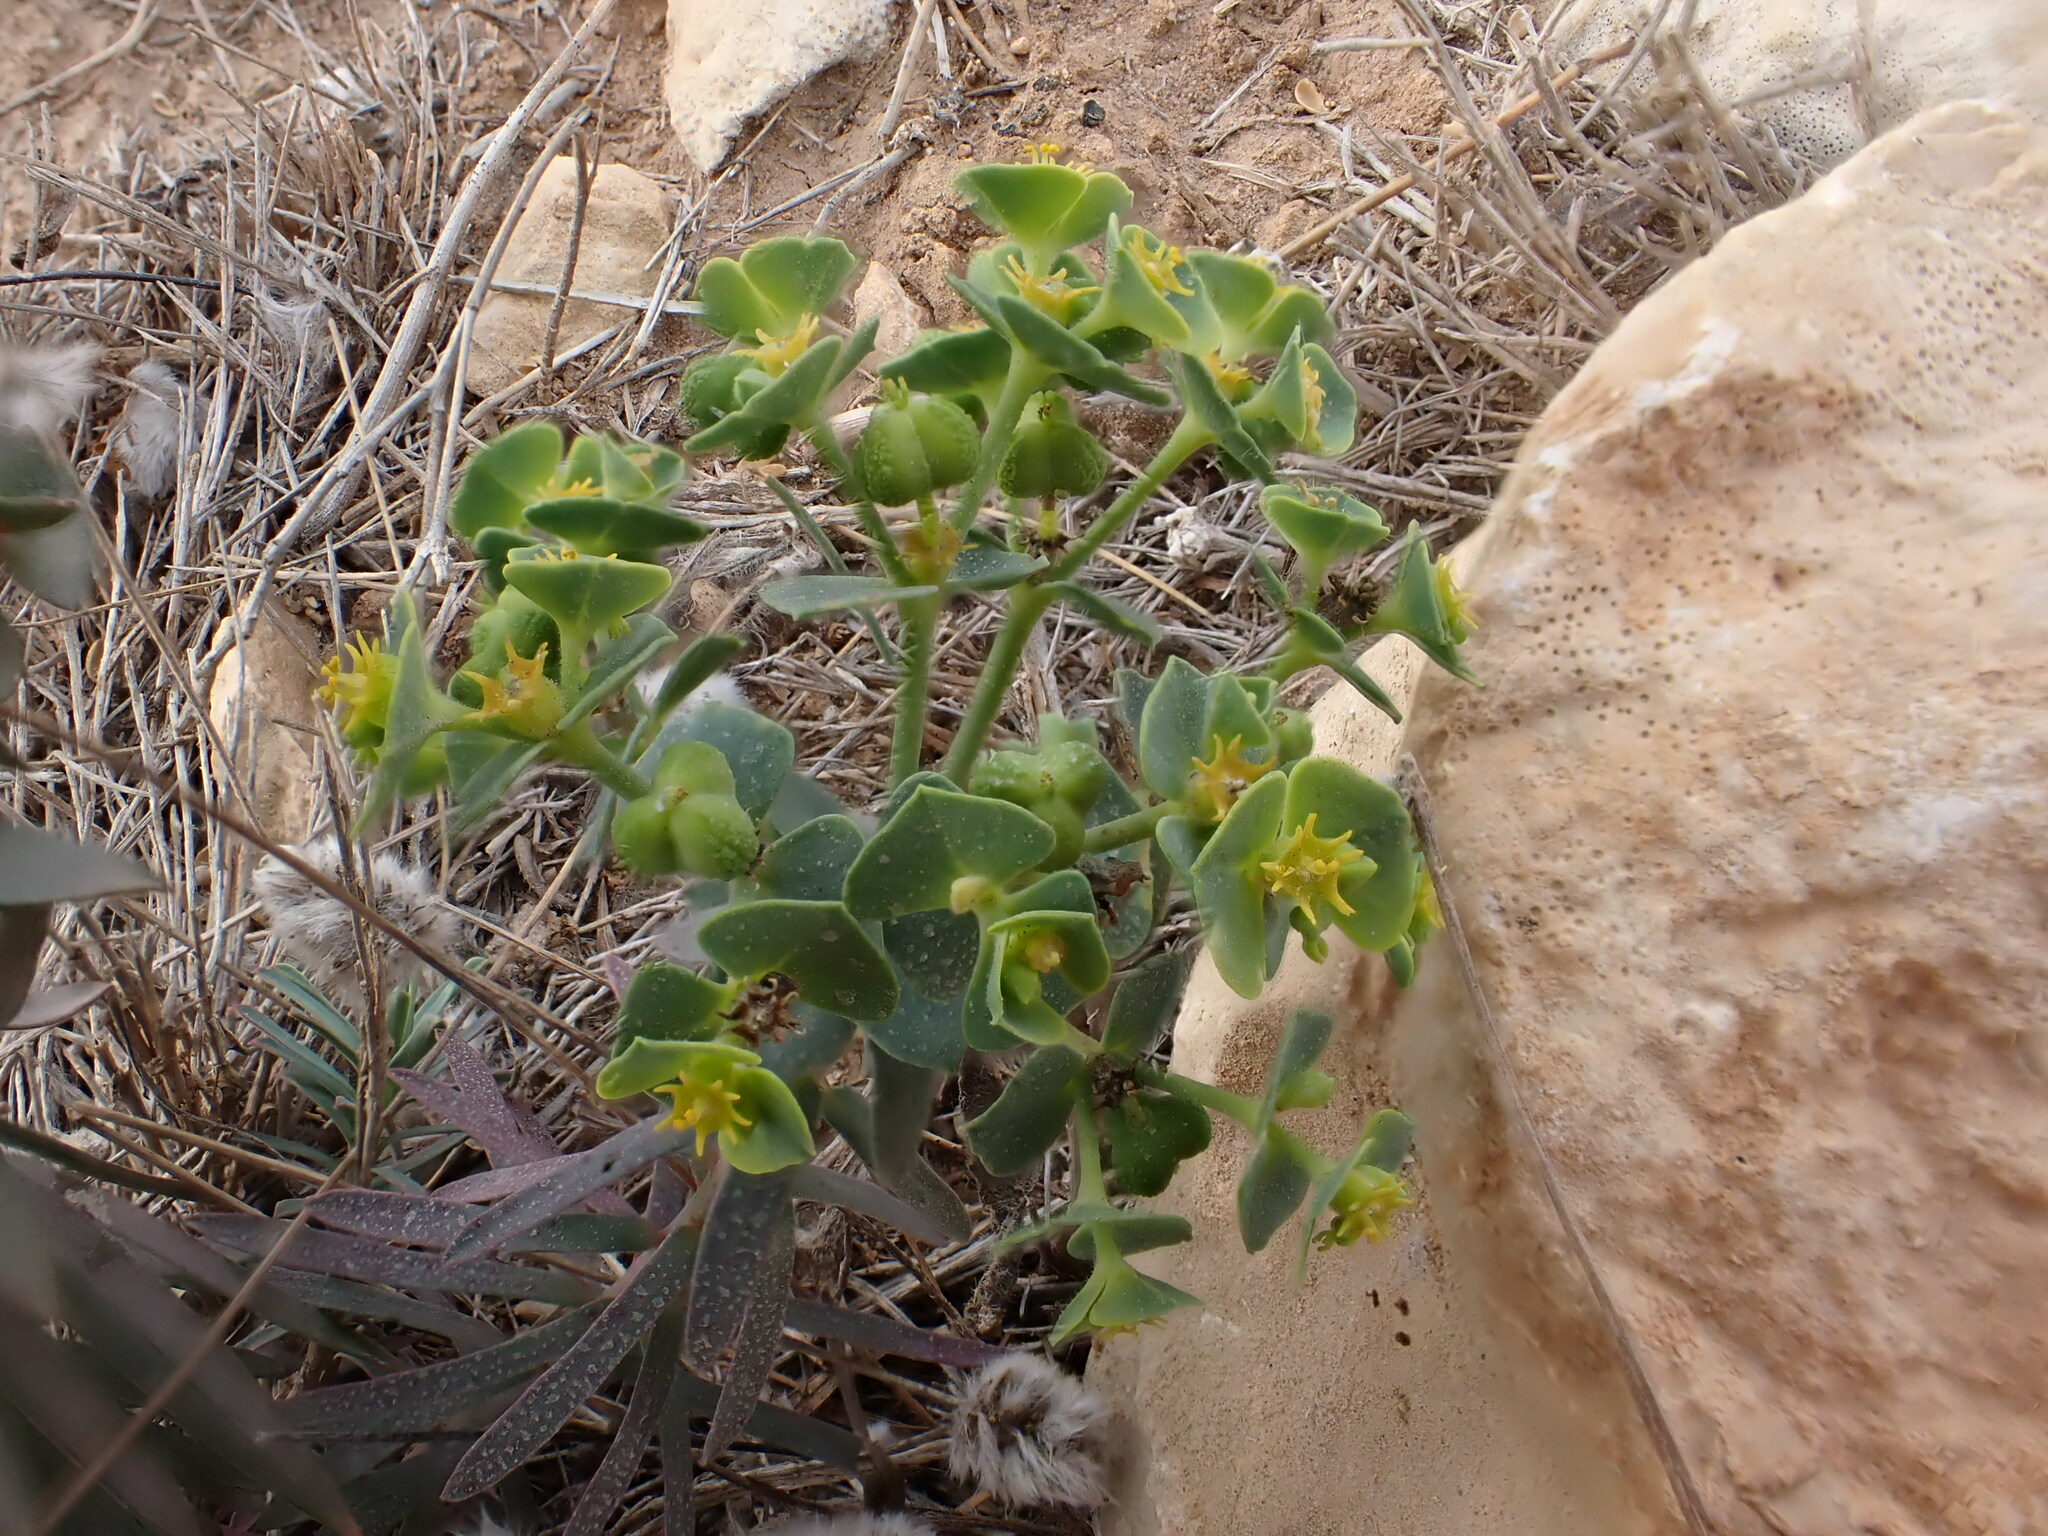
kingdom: Plantae
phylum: Tracheophyta
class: Magnoliopsida
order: Malpighiales
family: Euphorbiaceae
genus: Euphorbia
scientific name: Euphorbia segetalis
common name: Corn spurge
